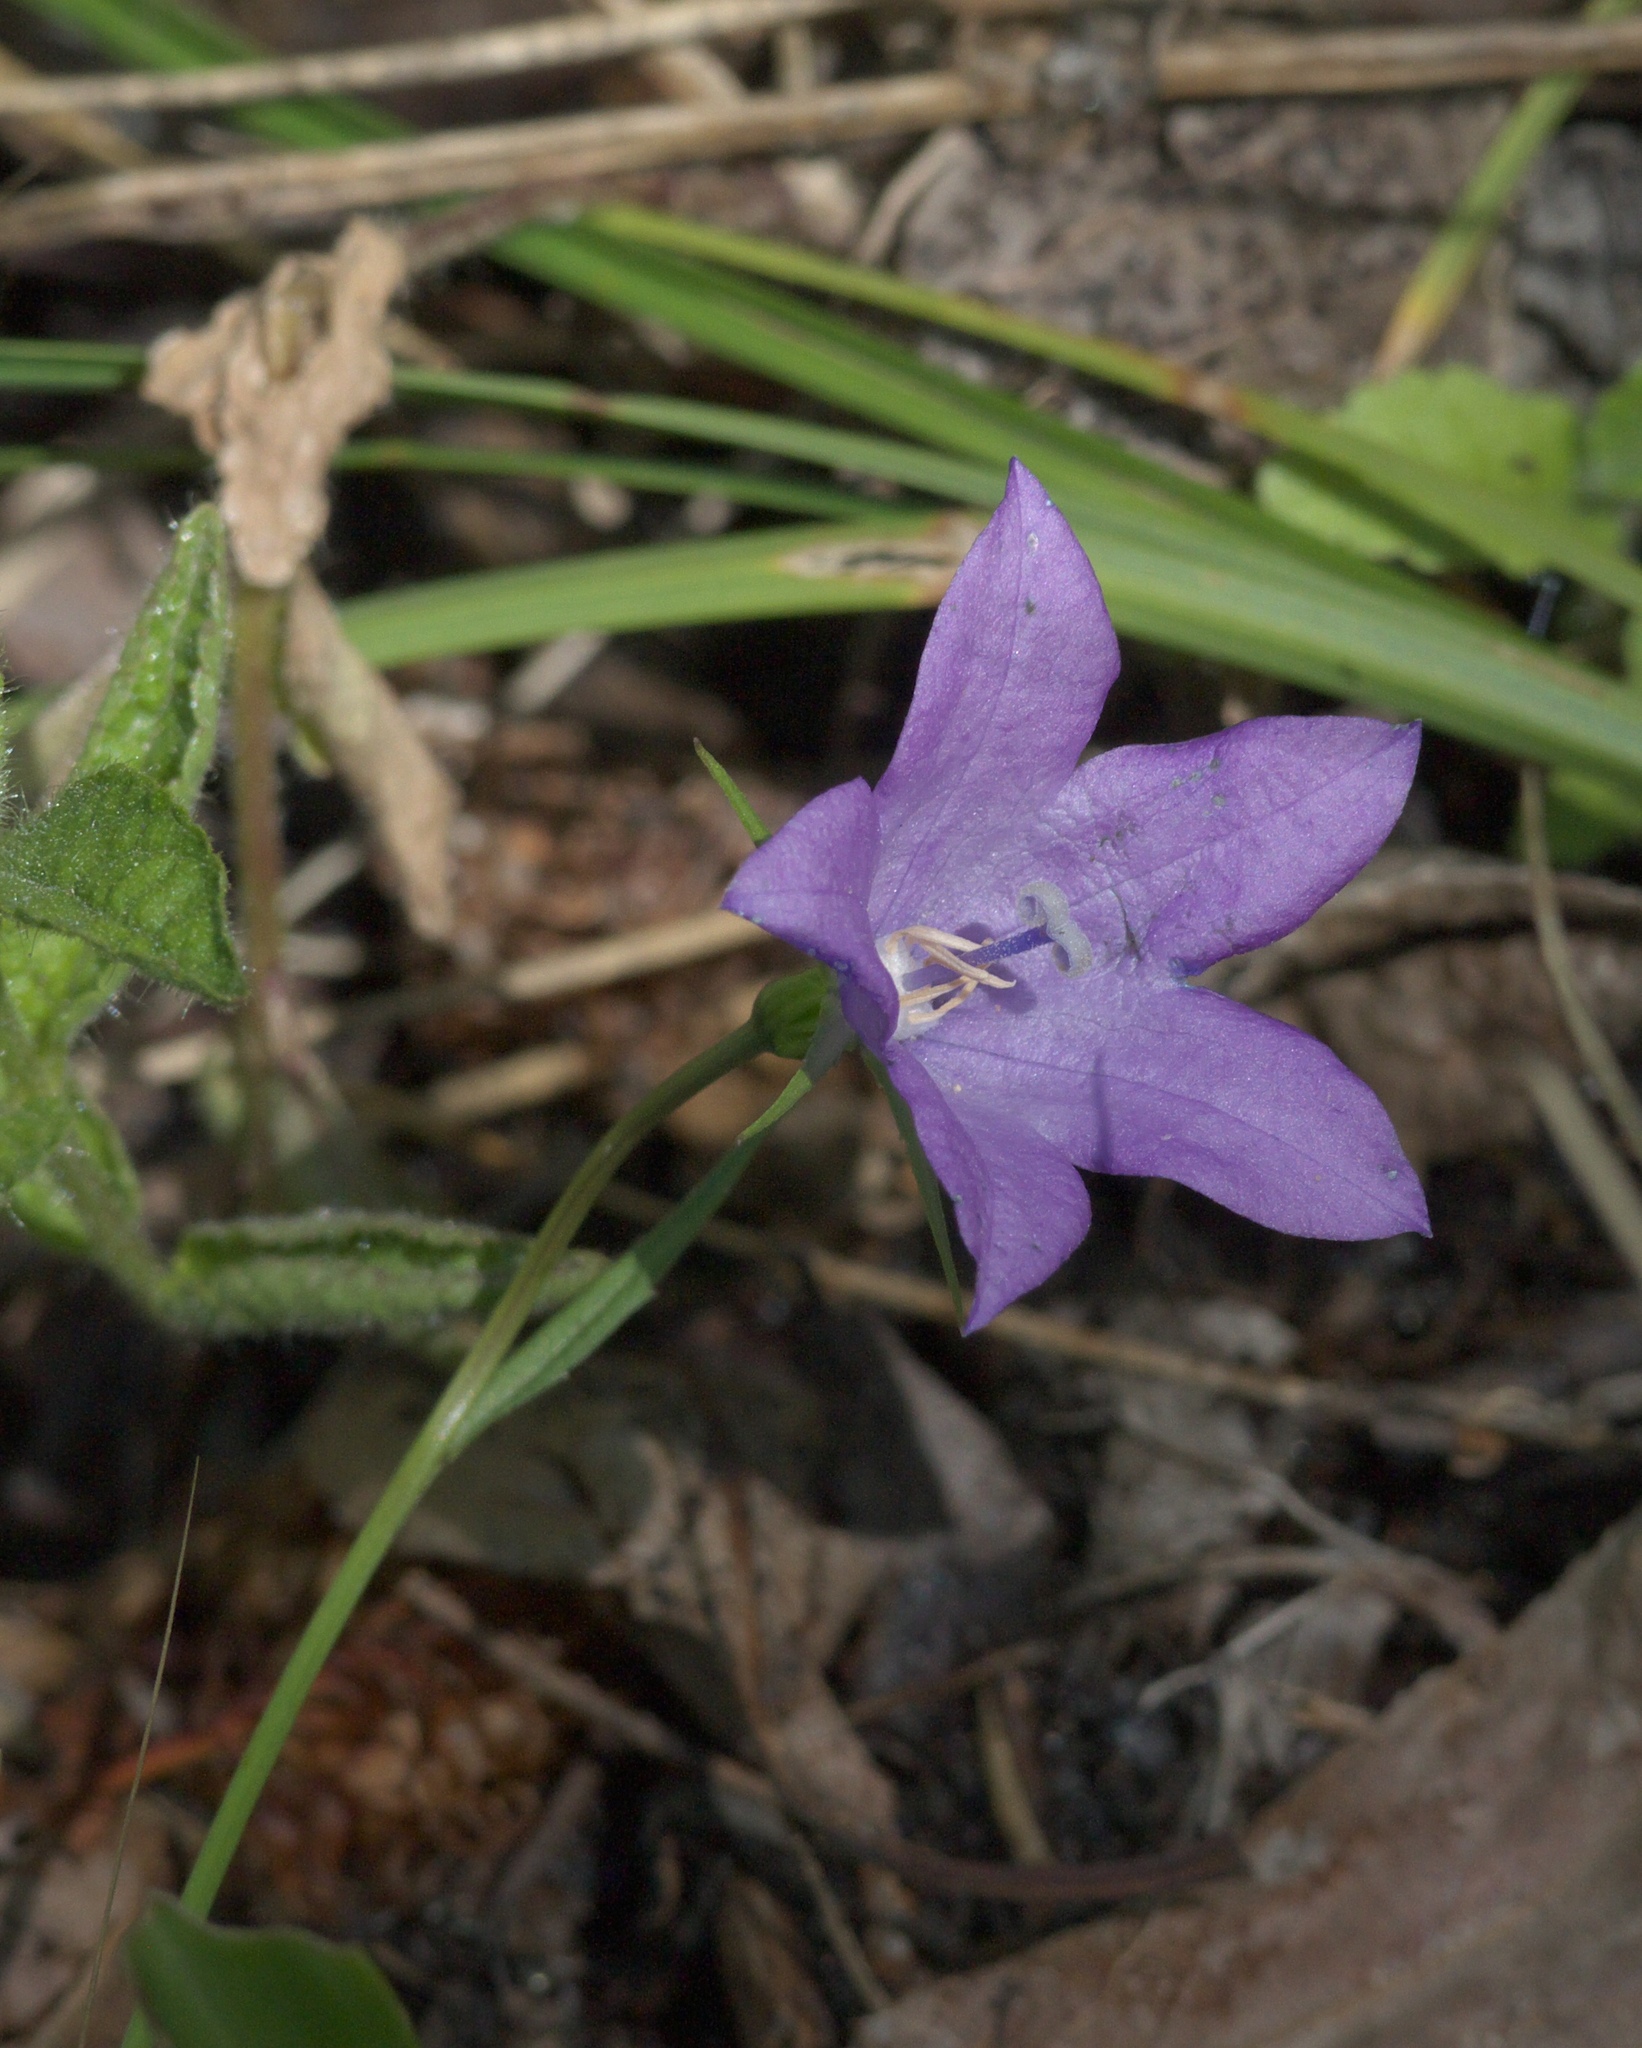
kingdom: Plantae
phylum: Tracheophyta
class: Magnoliopsida
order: Asterales
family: Campanulaceae
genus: Campanula
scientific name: Campanula petiolata
